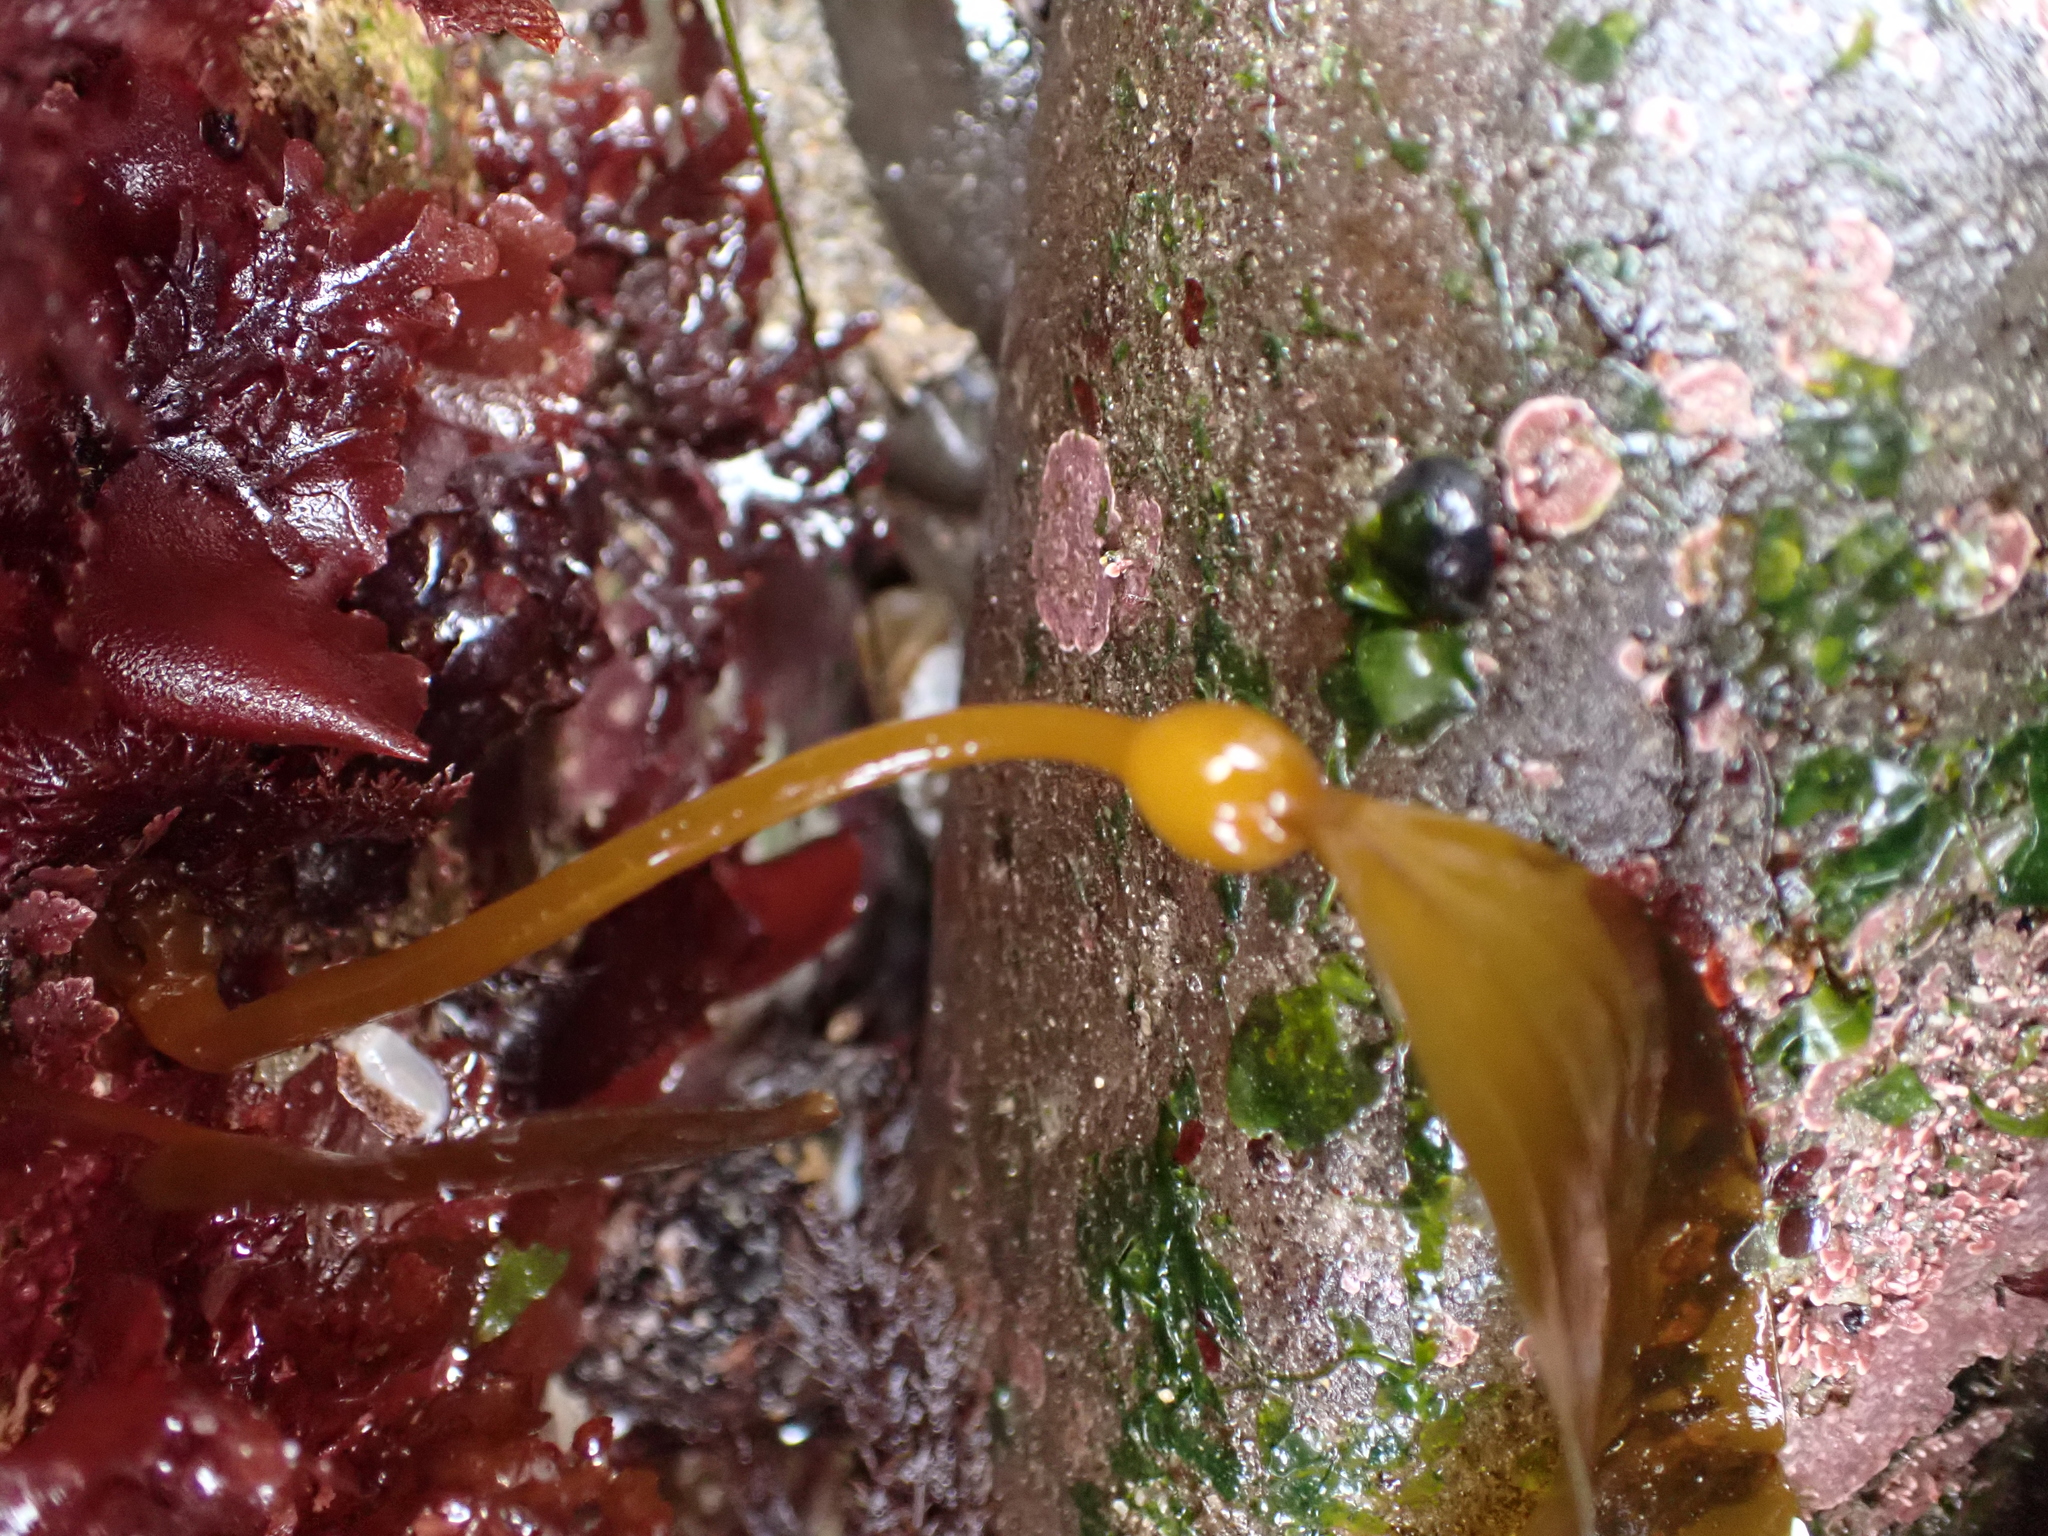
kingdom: Chromista
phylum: Ochrophyta
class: Phaeophyceae
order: Laminariales
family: Laminariaceae
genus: Nereocystis
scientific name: Nereocystis luetkeana
